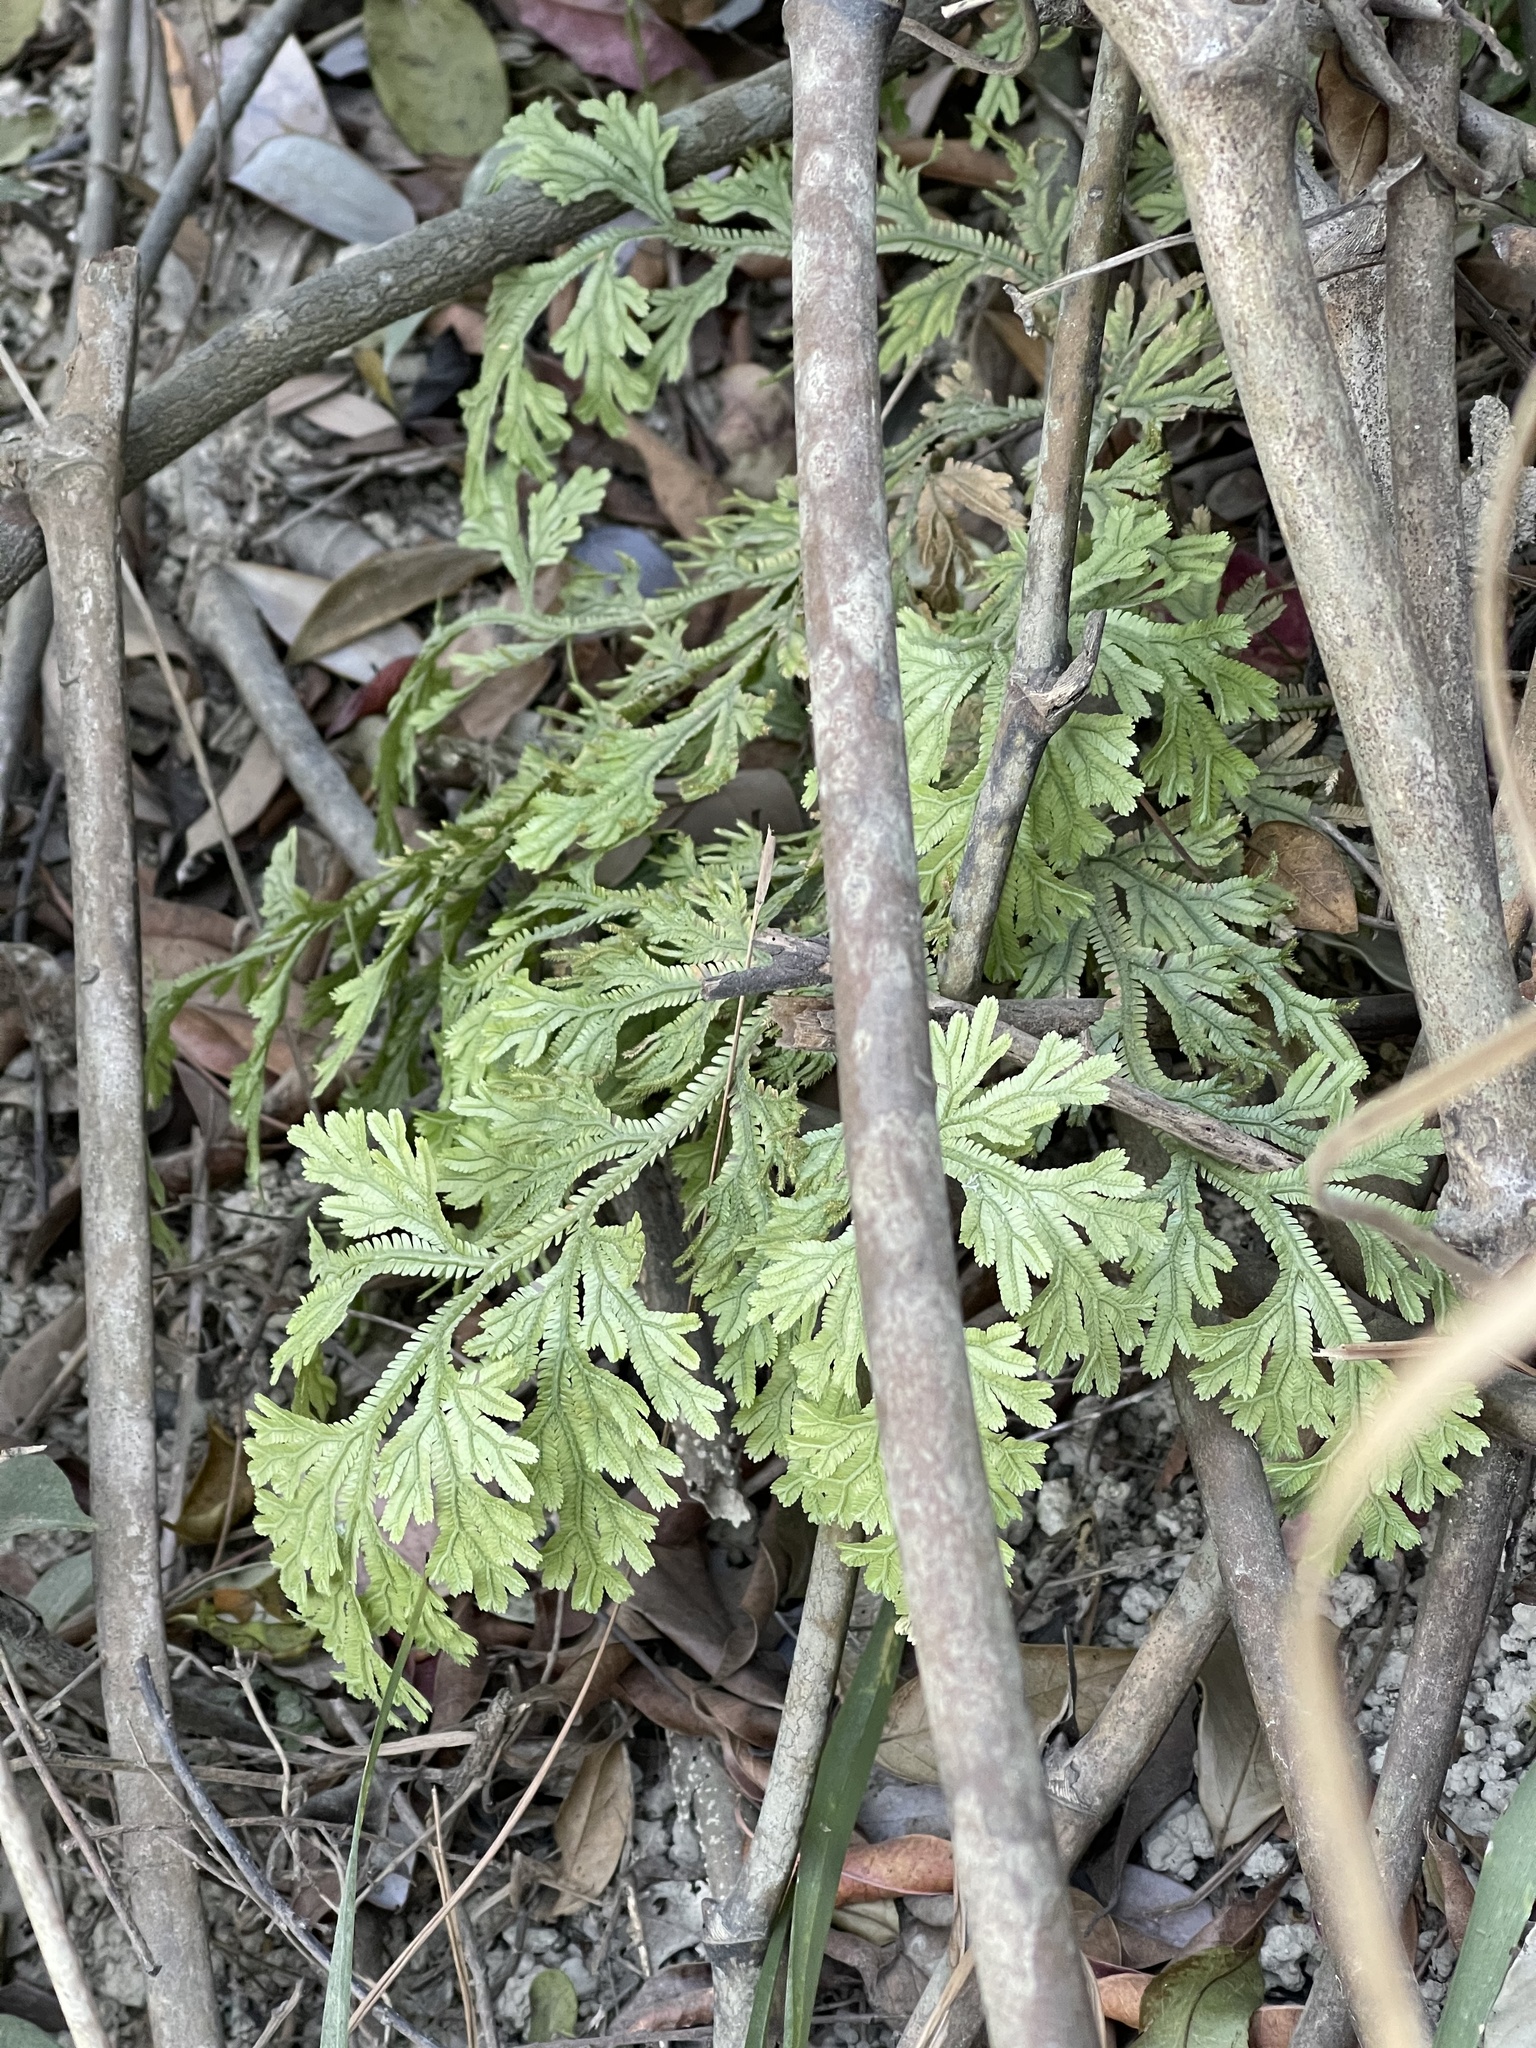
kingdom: Plantae
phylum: Tracheophyta
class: Lycopodiopsida
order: Selaginellales
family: Selaginellaceae
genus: Selaginella
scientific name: Selaginella doederleinii
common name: Greater selaginella
